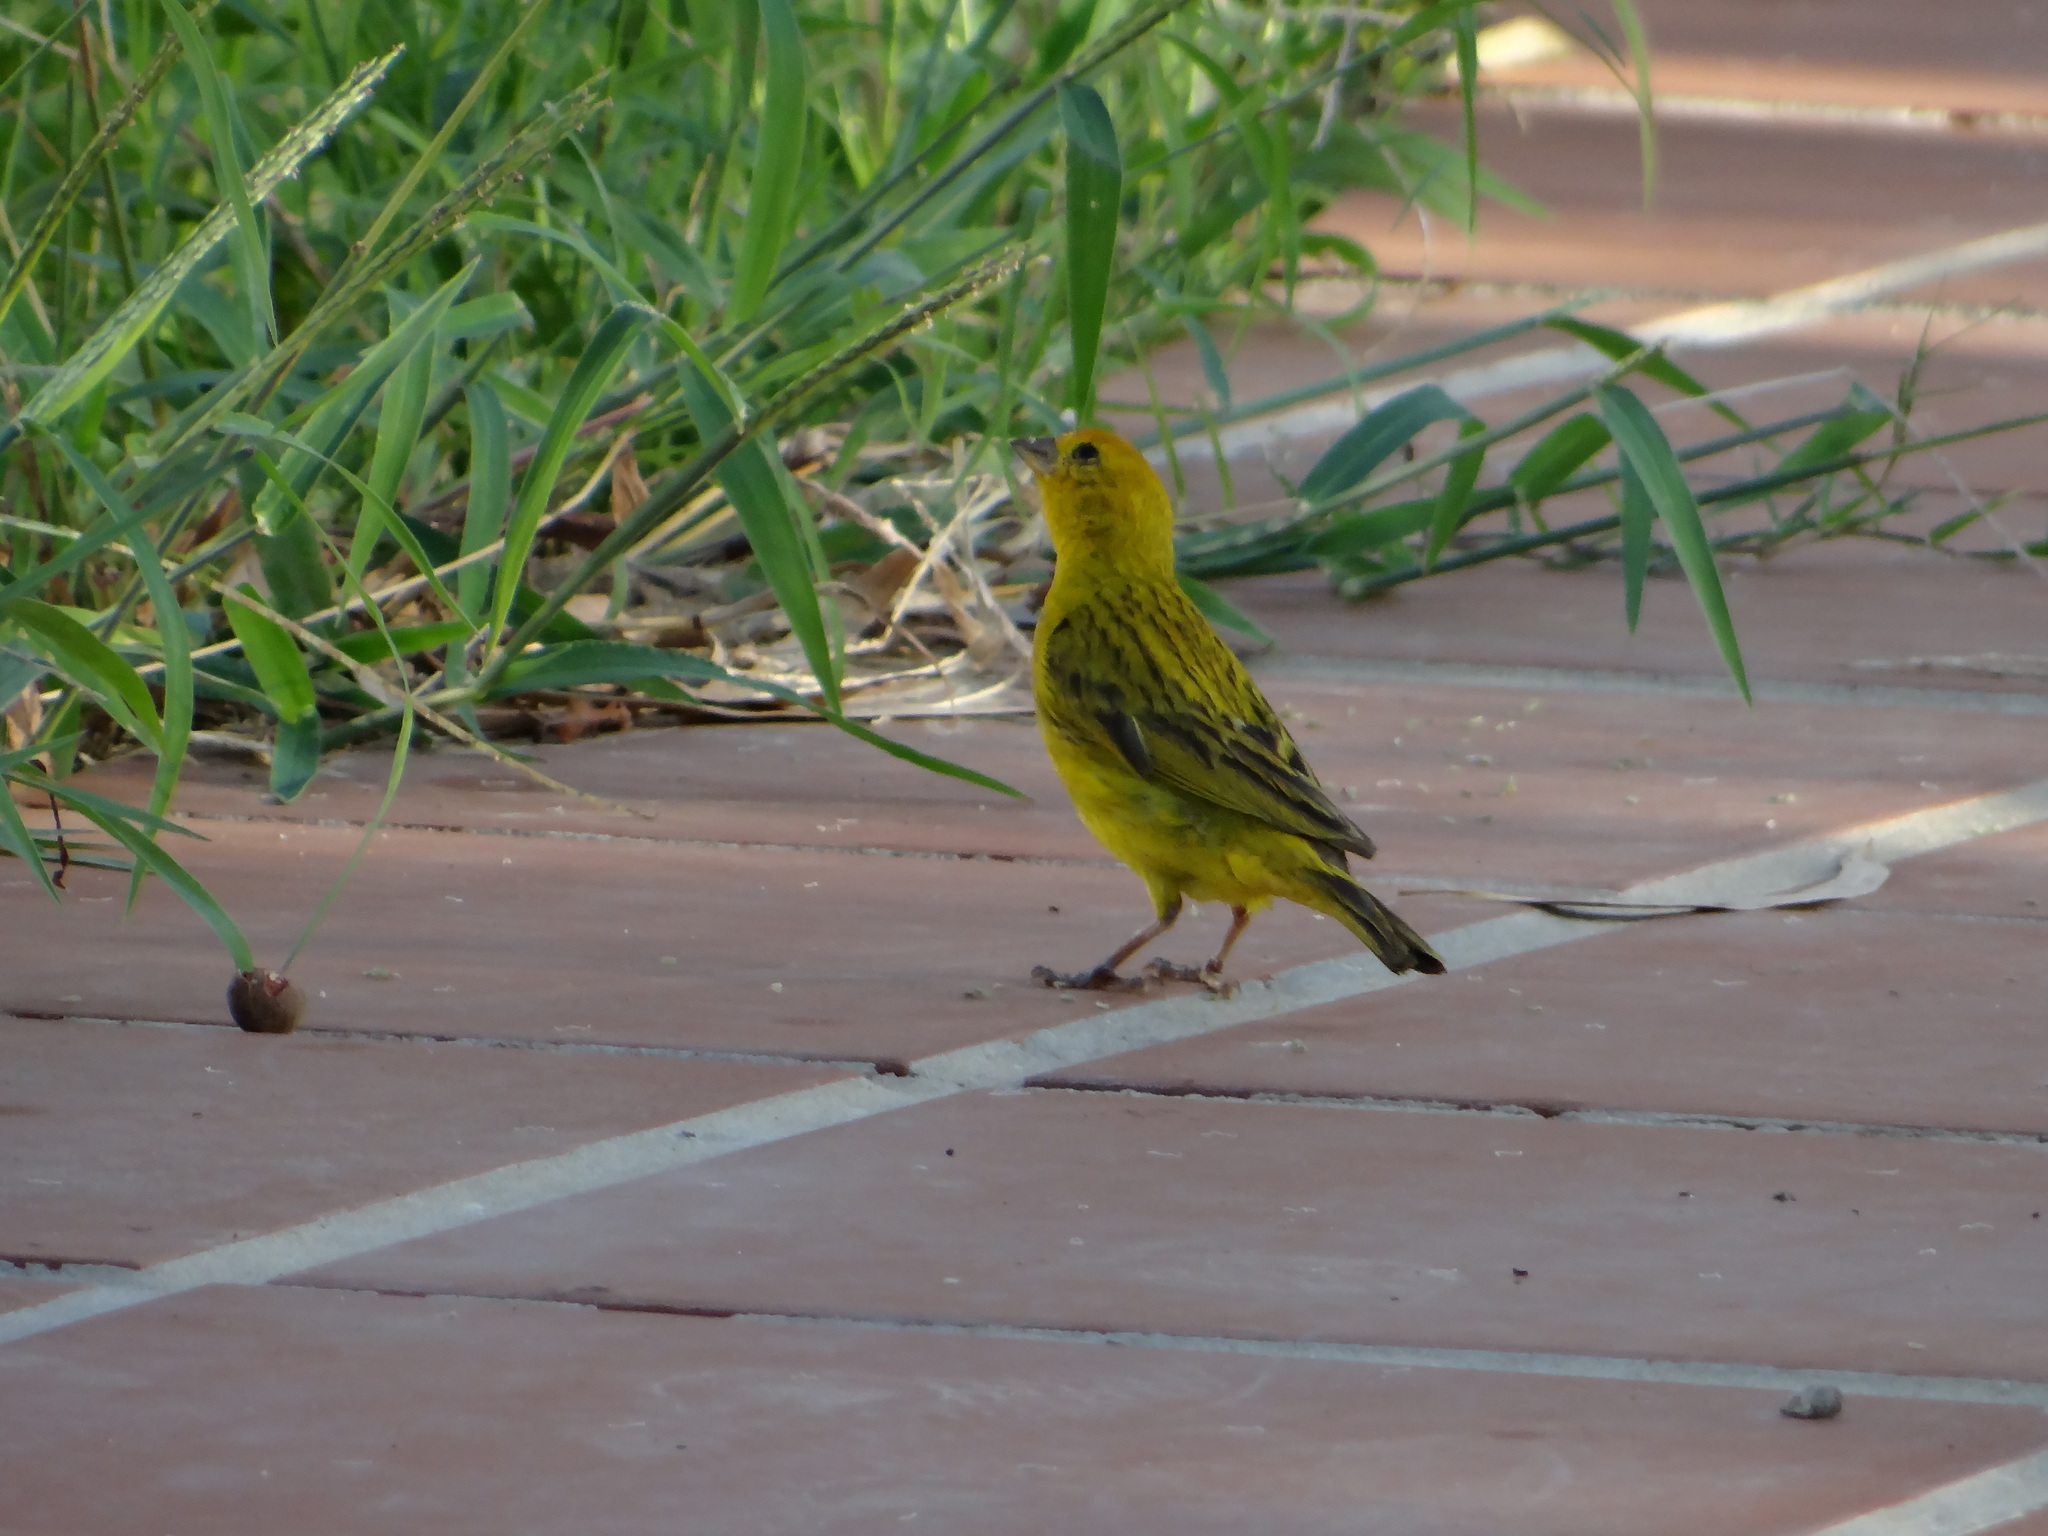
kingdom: Animalia
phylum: Chordata
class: Aves
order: Passeriformes
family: Thraupidae
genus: Sicalis
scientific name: Sicalis flaveola
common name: Saffron finch
